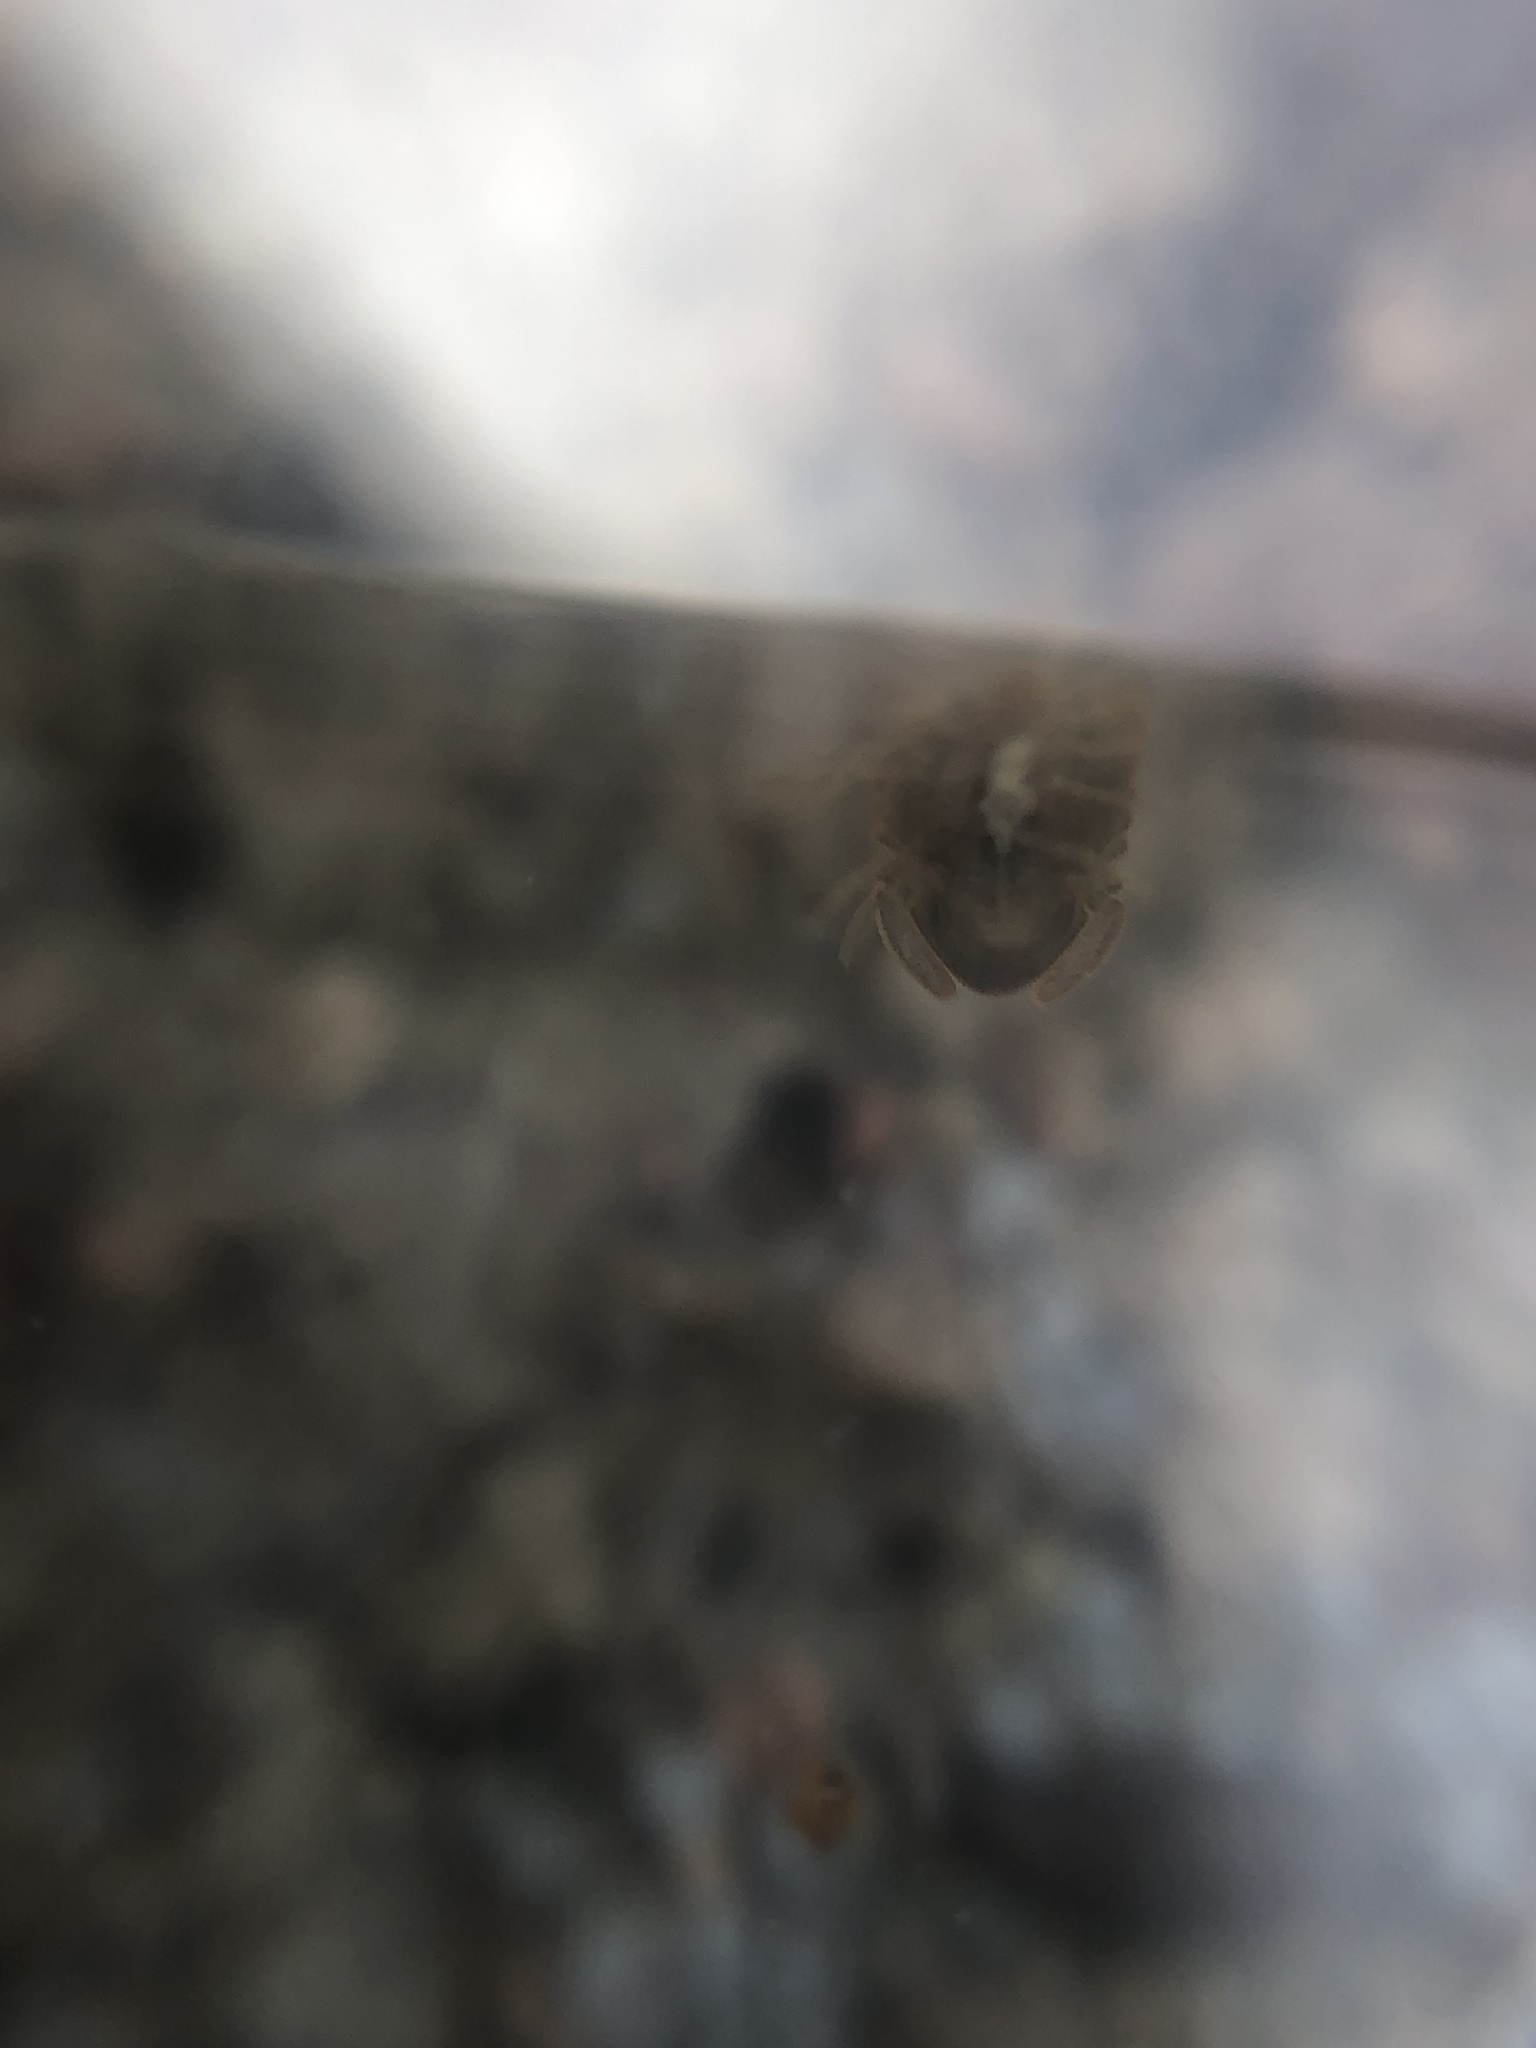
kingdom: Animalia
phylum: Arthropoda
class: Malacostraca
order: Isopoda
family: Sphaeromatidae
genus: Thermosphaeroma
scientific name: Thermosphaeroma thermophilum
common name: Socorro isopod
